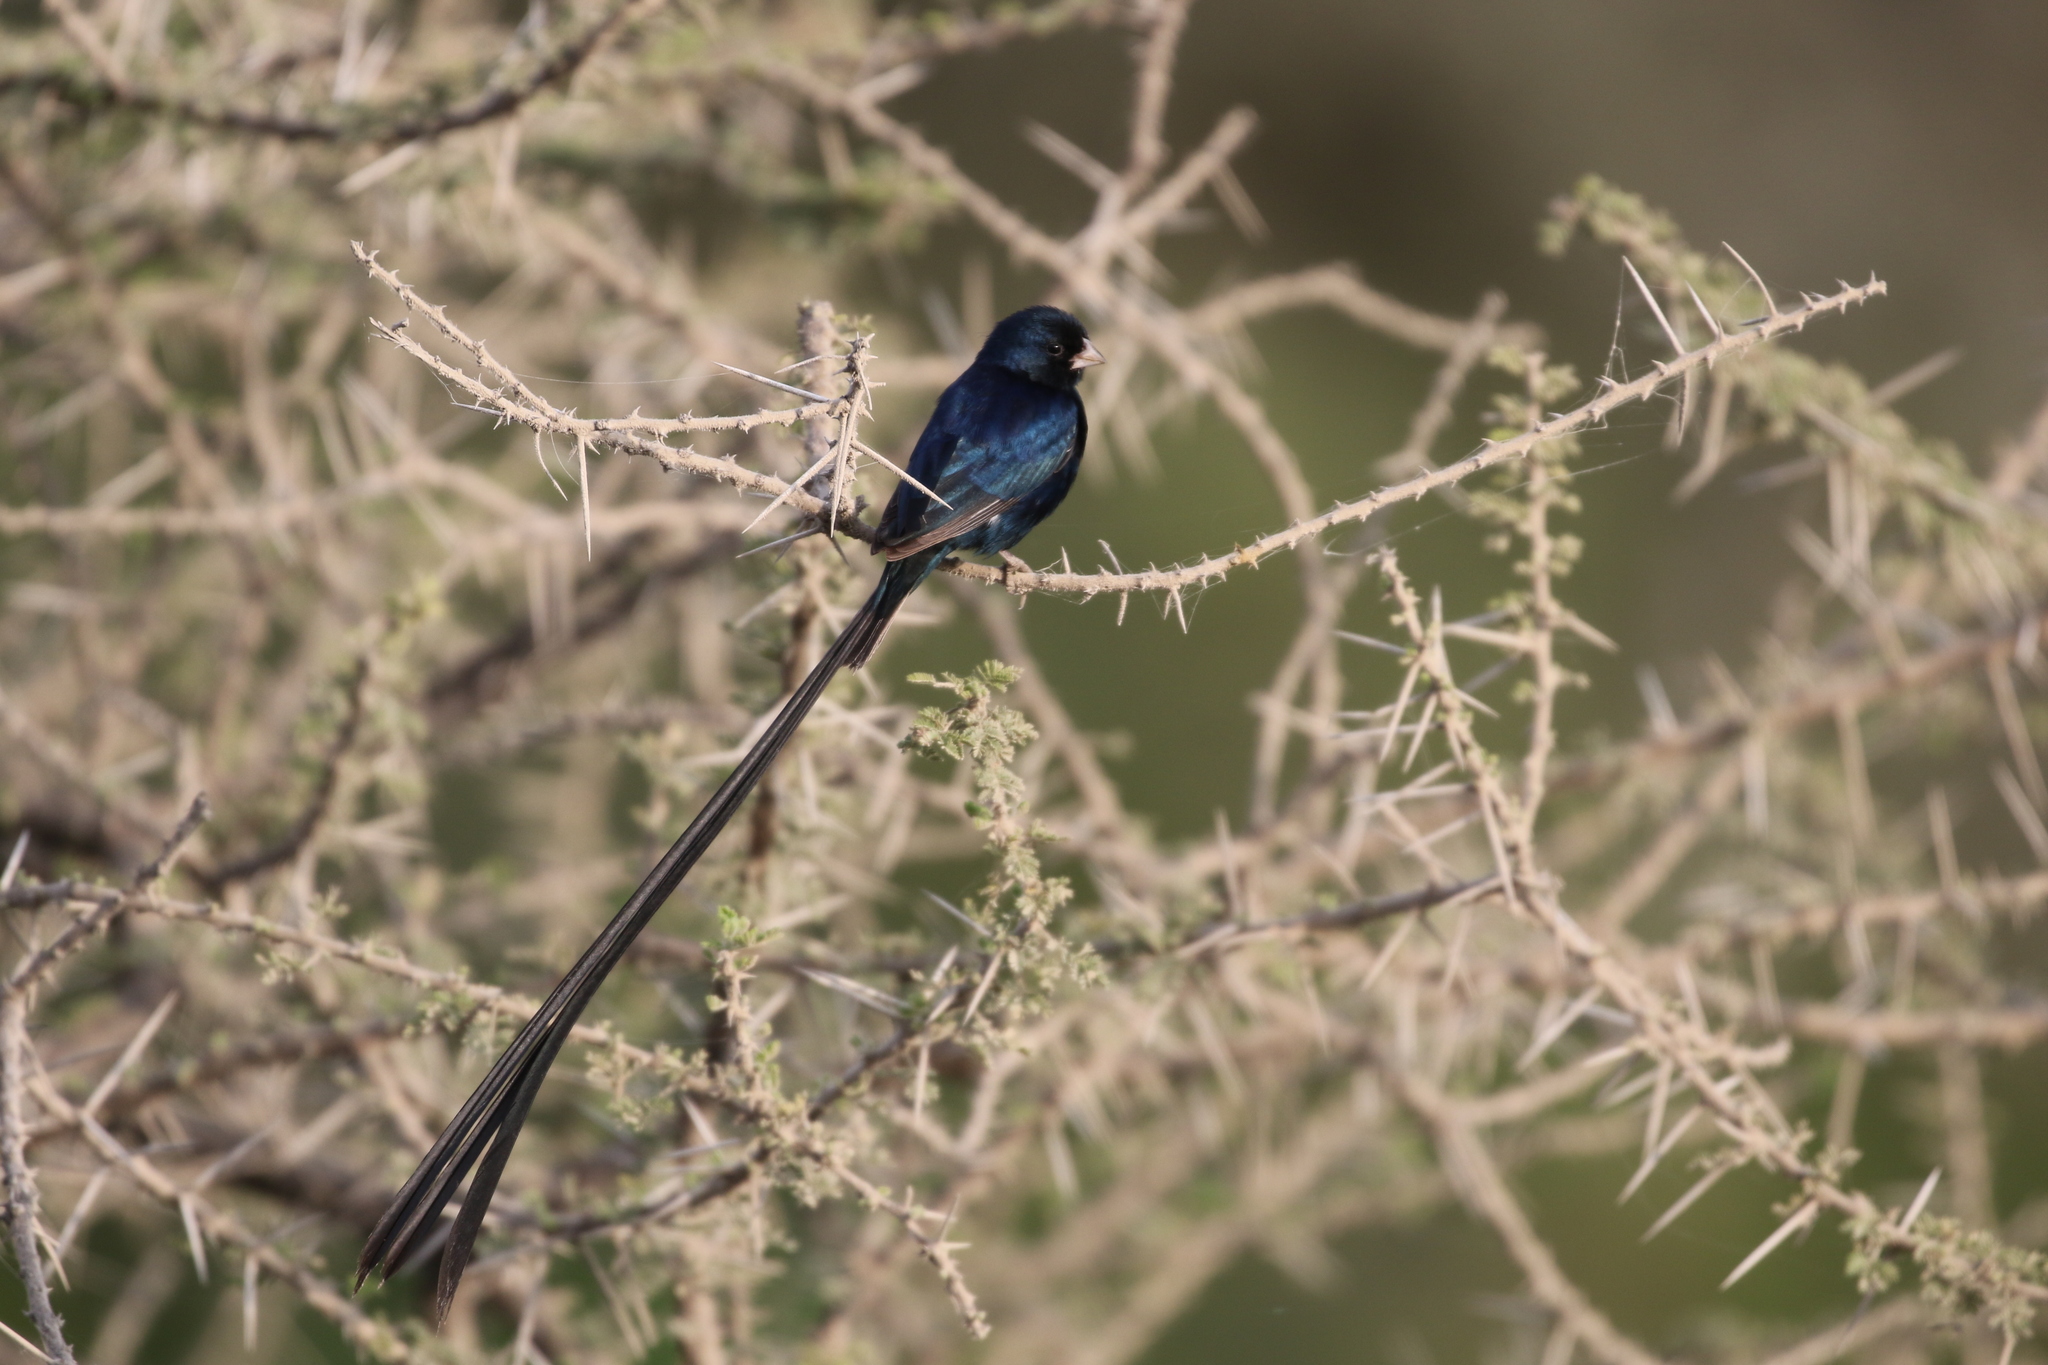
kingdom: Animalia
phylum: Chordata
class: Aves
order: Passeriformes
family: Viduidae
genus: Vidua
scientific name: Vidua hypocherina
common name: Steel-blue whydah
